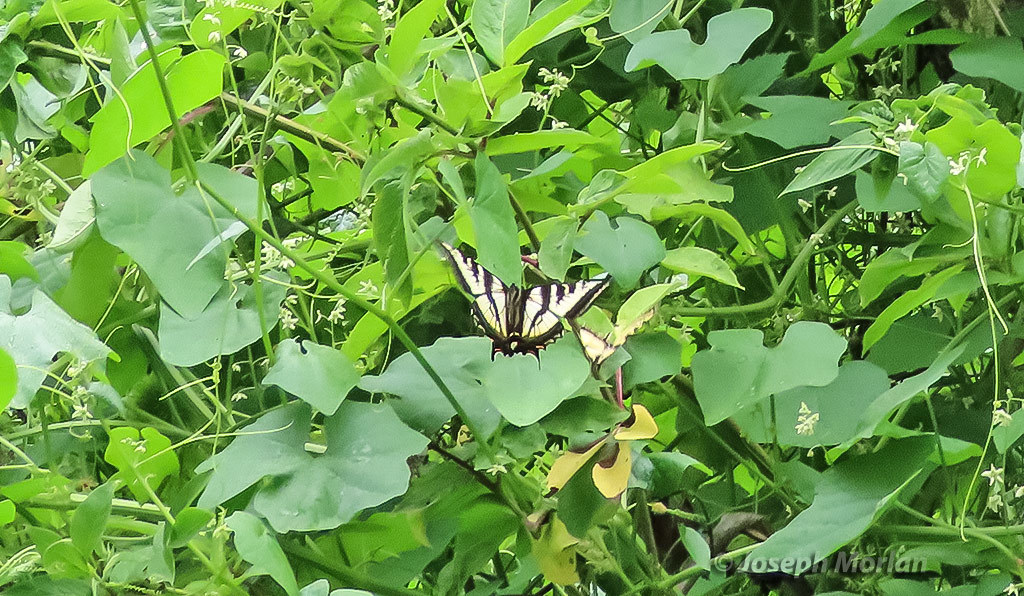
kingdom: Animalia
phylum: Arthropoda
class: Insecta
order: Lepidoptera
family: Papilionidae
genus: Papilio
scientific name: Papilio eurymedon
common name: Pale tiger swallowtail
